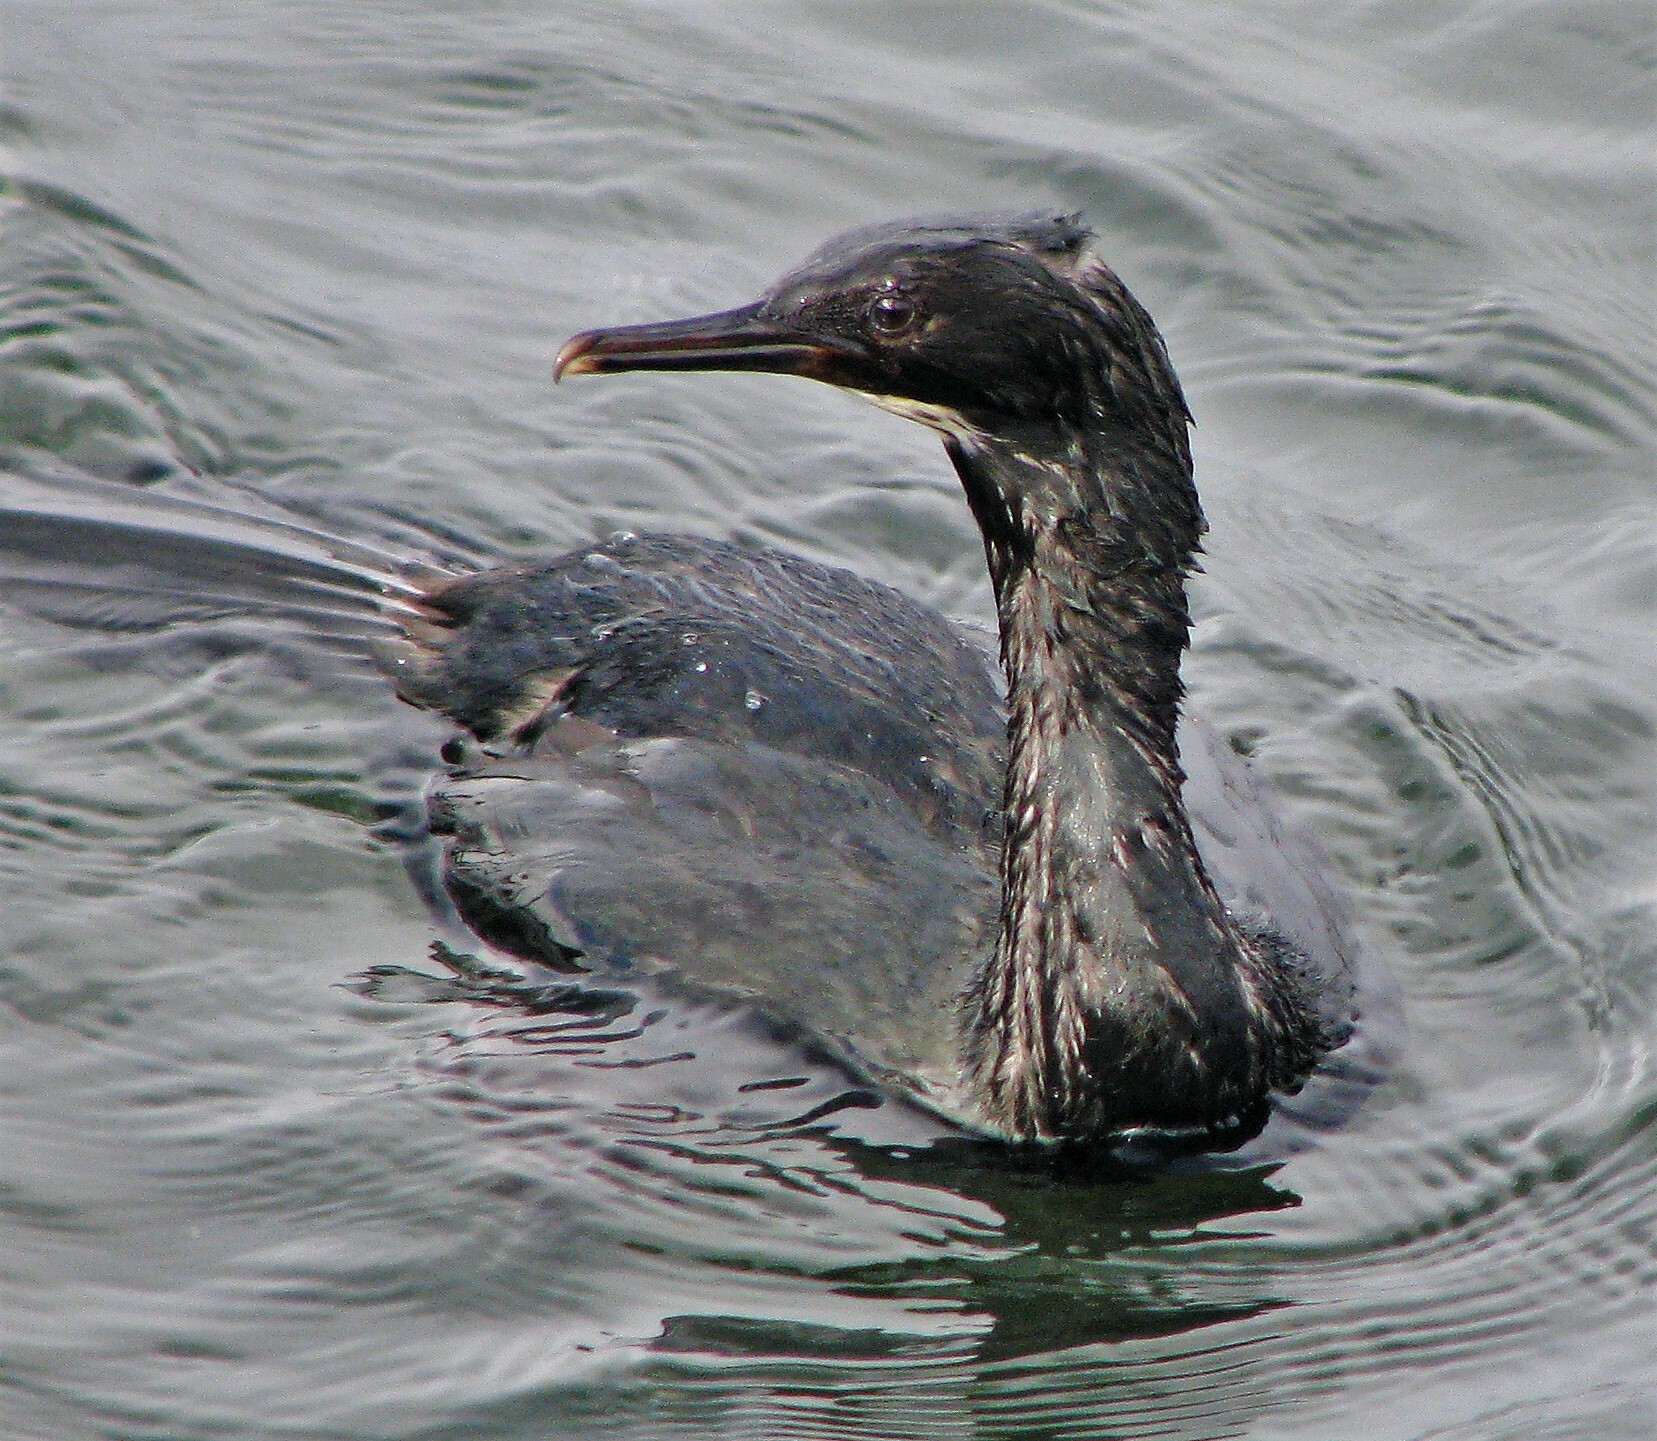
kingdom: Animalia
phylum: Chordata
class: Aves
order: Suliformes
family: Phalacrocoracidae
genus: Phalacrocorax
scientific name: Phalacrocorax magellanicus
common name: Rock shag
